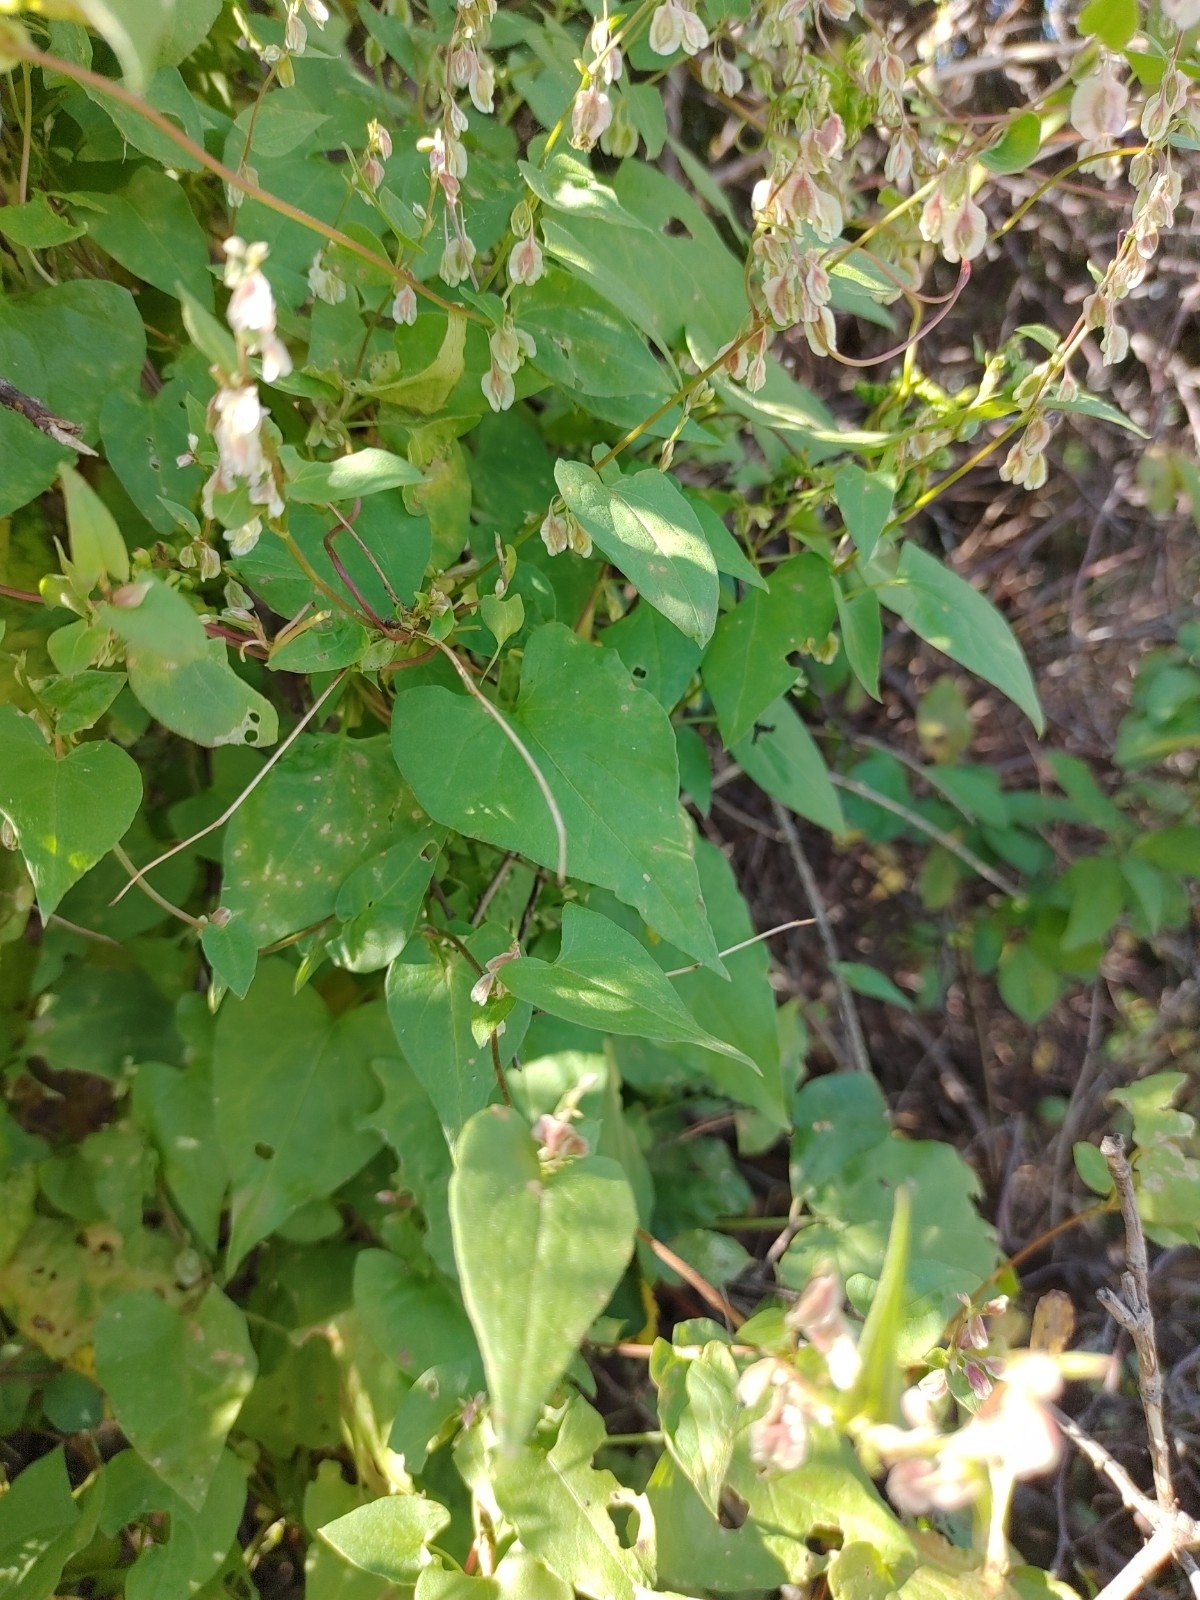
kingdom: Plantae
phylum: Tracheophyta
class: Magnoliopsida
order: Caryophyllales
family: Polygonaceae
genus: Fallopia
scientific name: Fallopia dumetorum
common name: Copse-bindweed
